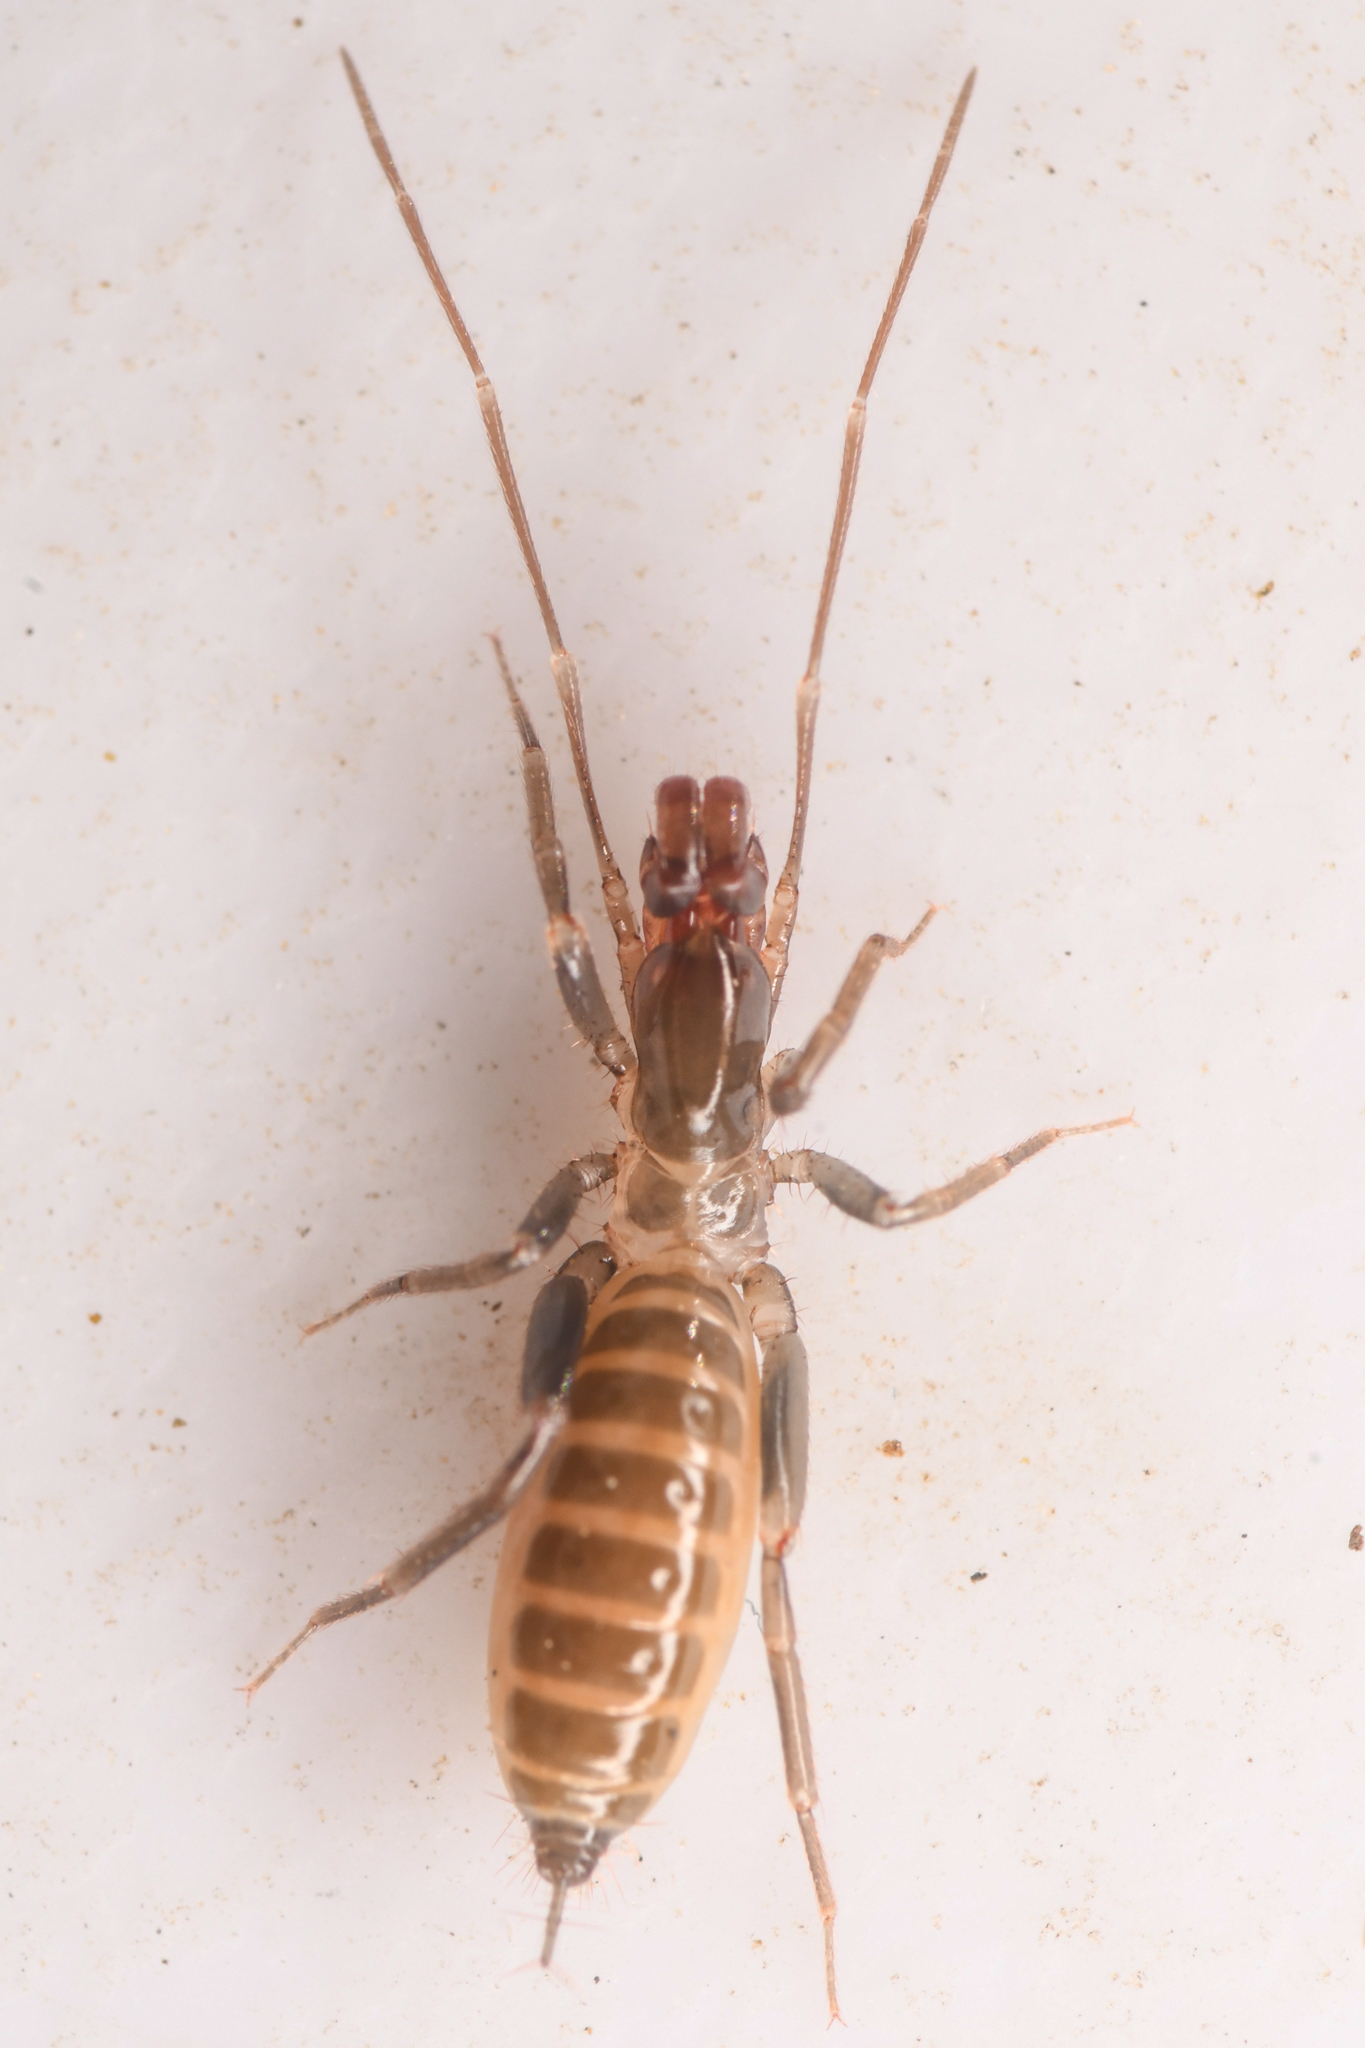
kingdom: Animalia
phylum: Arthropoda
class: Arachnida
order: Schizomida
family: Hubbardiidae
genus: Hubbardia
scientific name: Hubbardia pentapeltis
